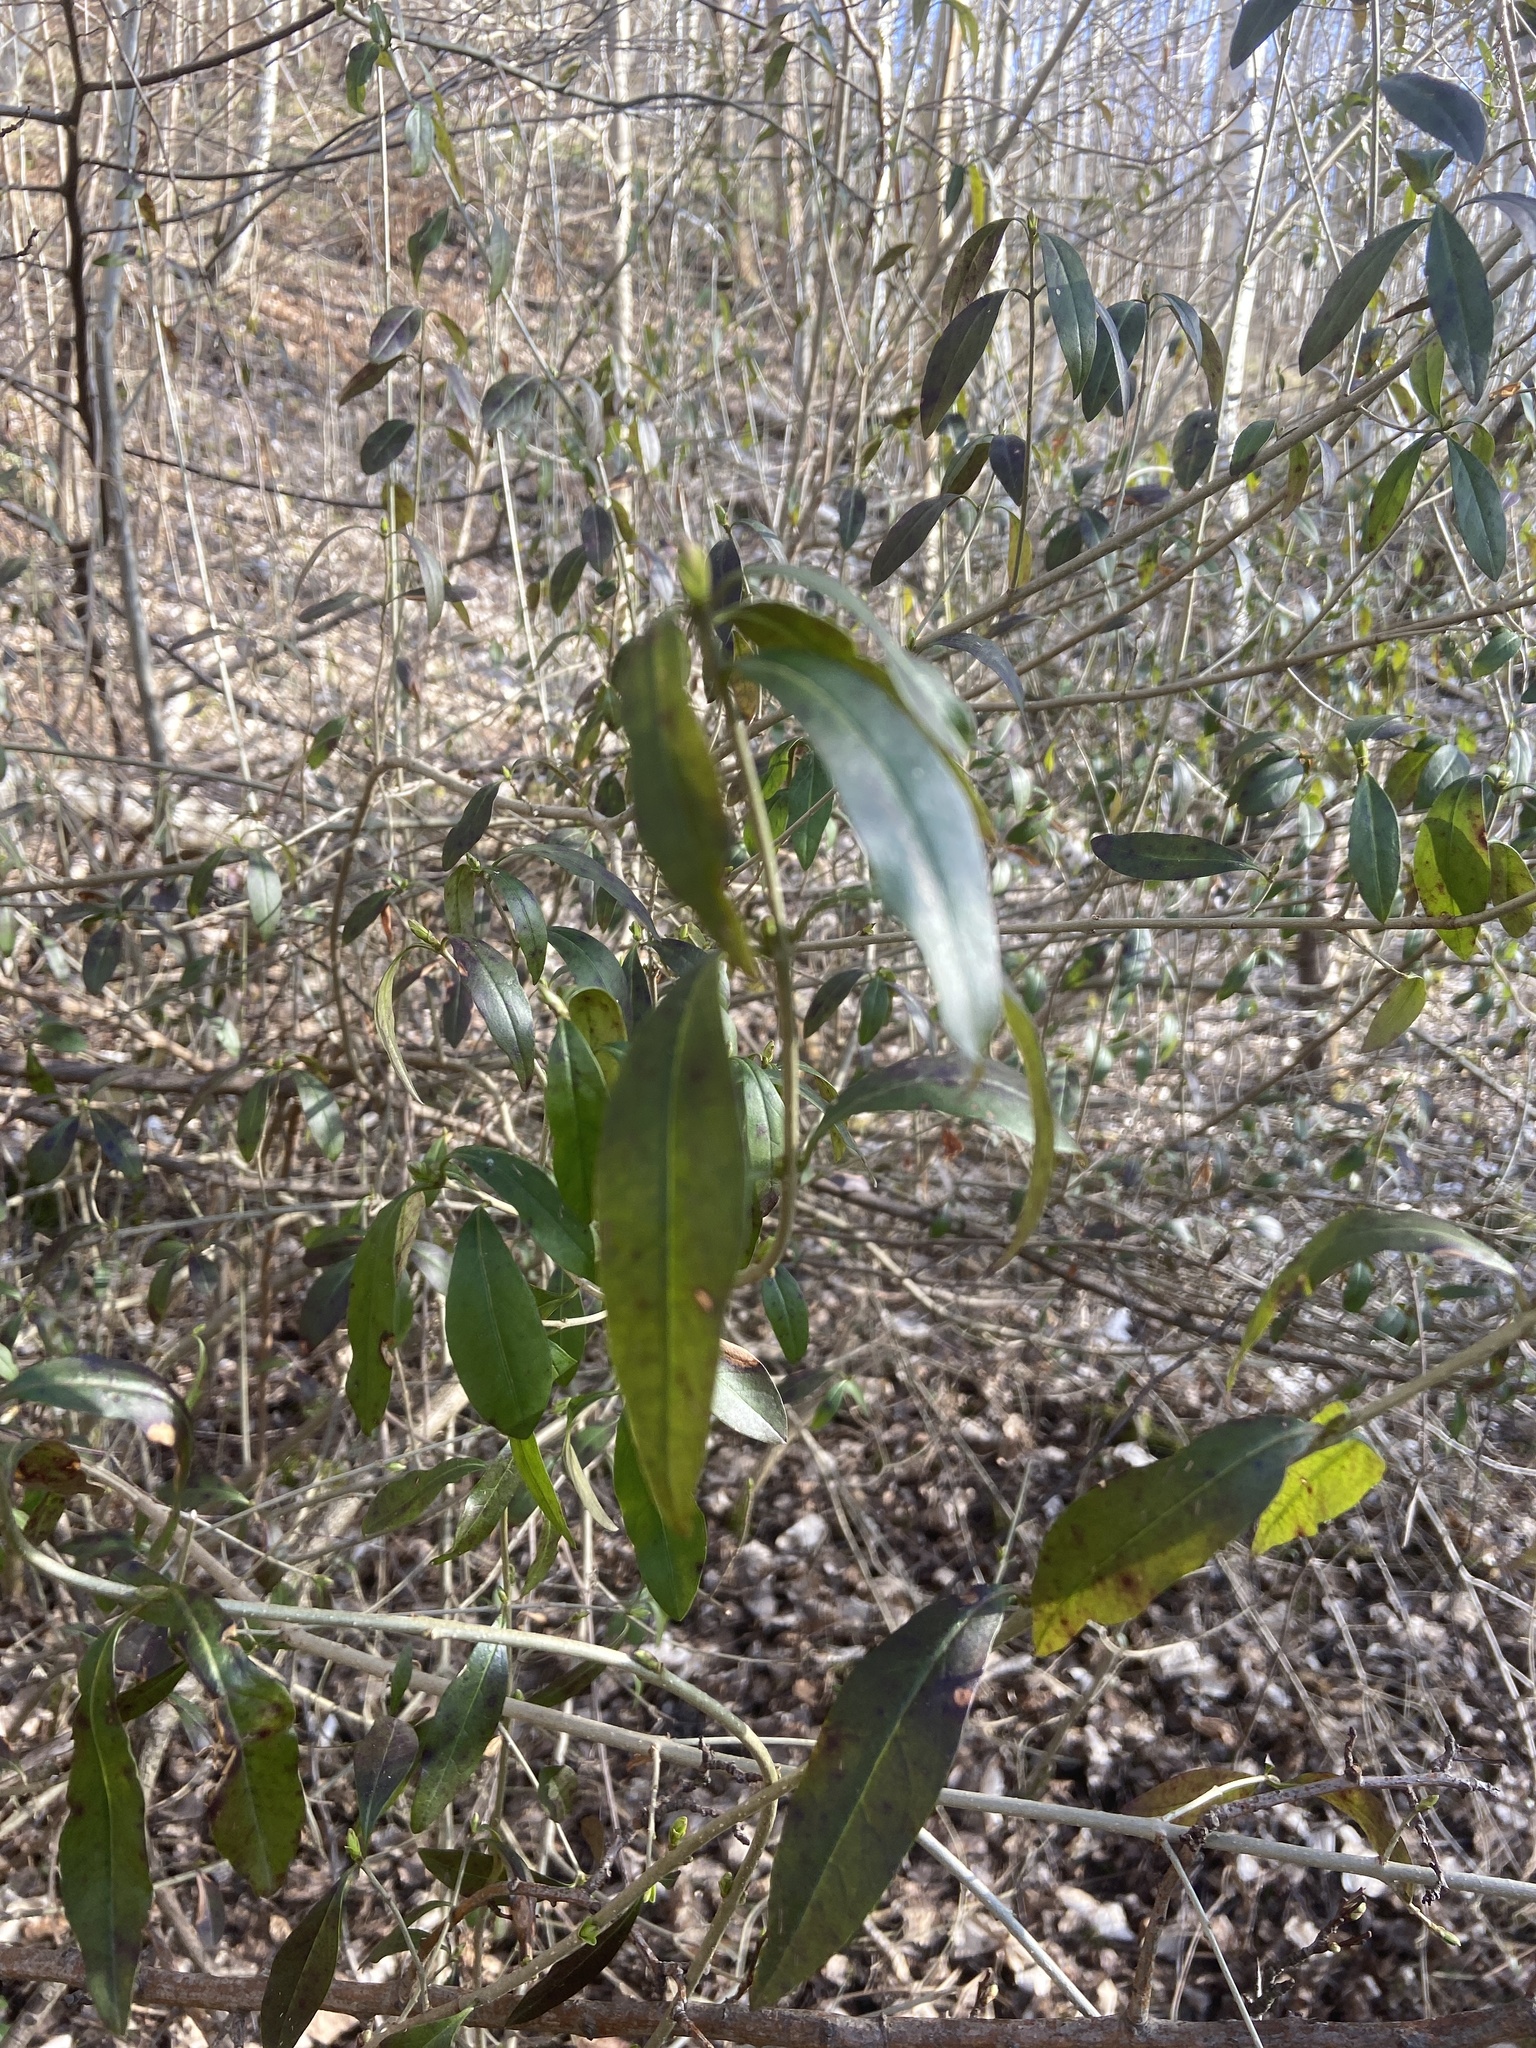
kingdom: Plantae
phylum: Tracheophyta
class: Magnoliopsida
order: Lamiales
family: Oleaceae
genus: Ligustrum
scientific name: Ligustrum vulgare
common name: Wild privet
